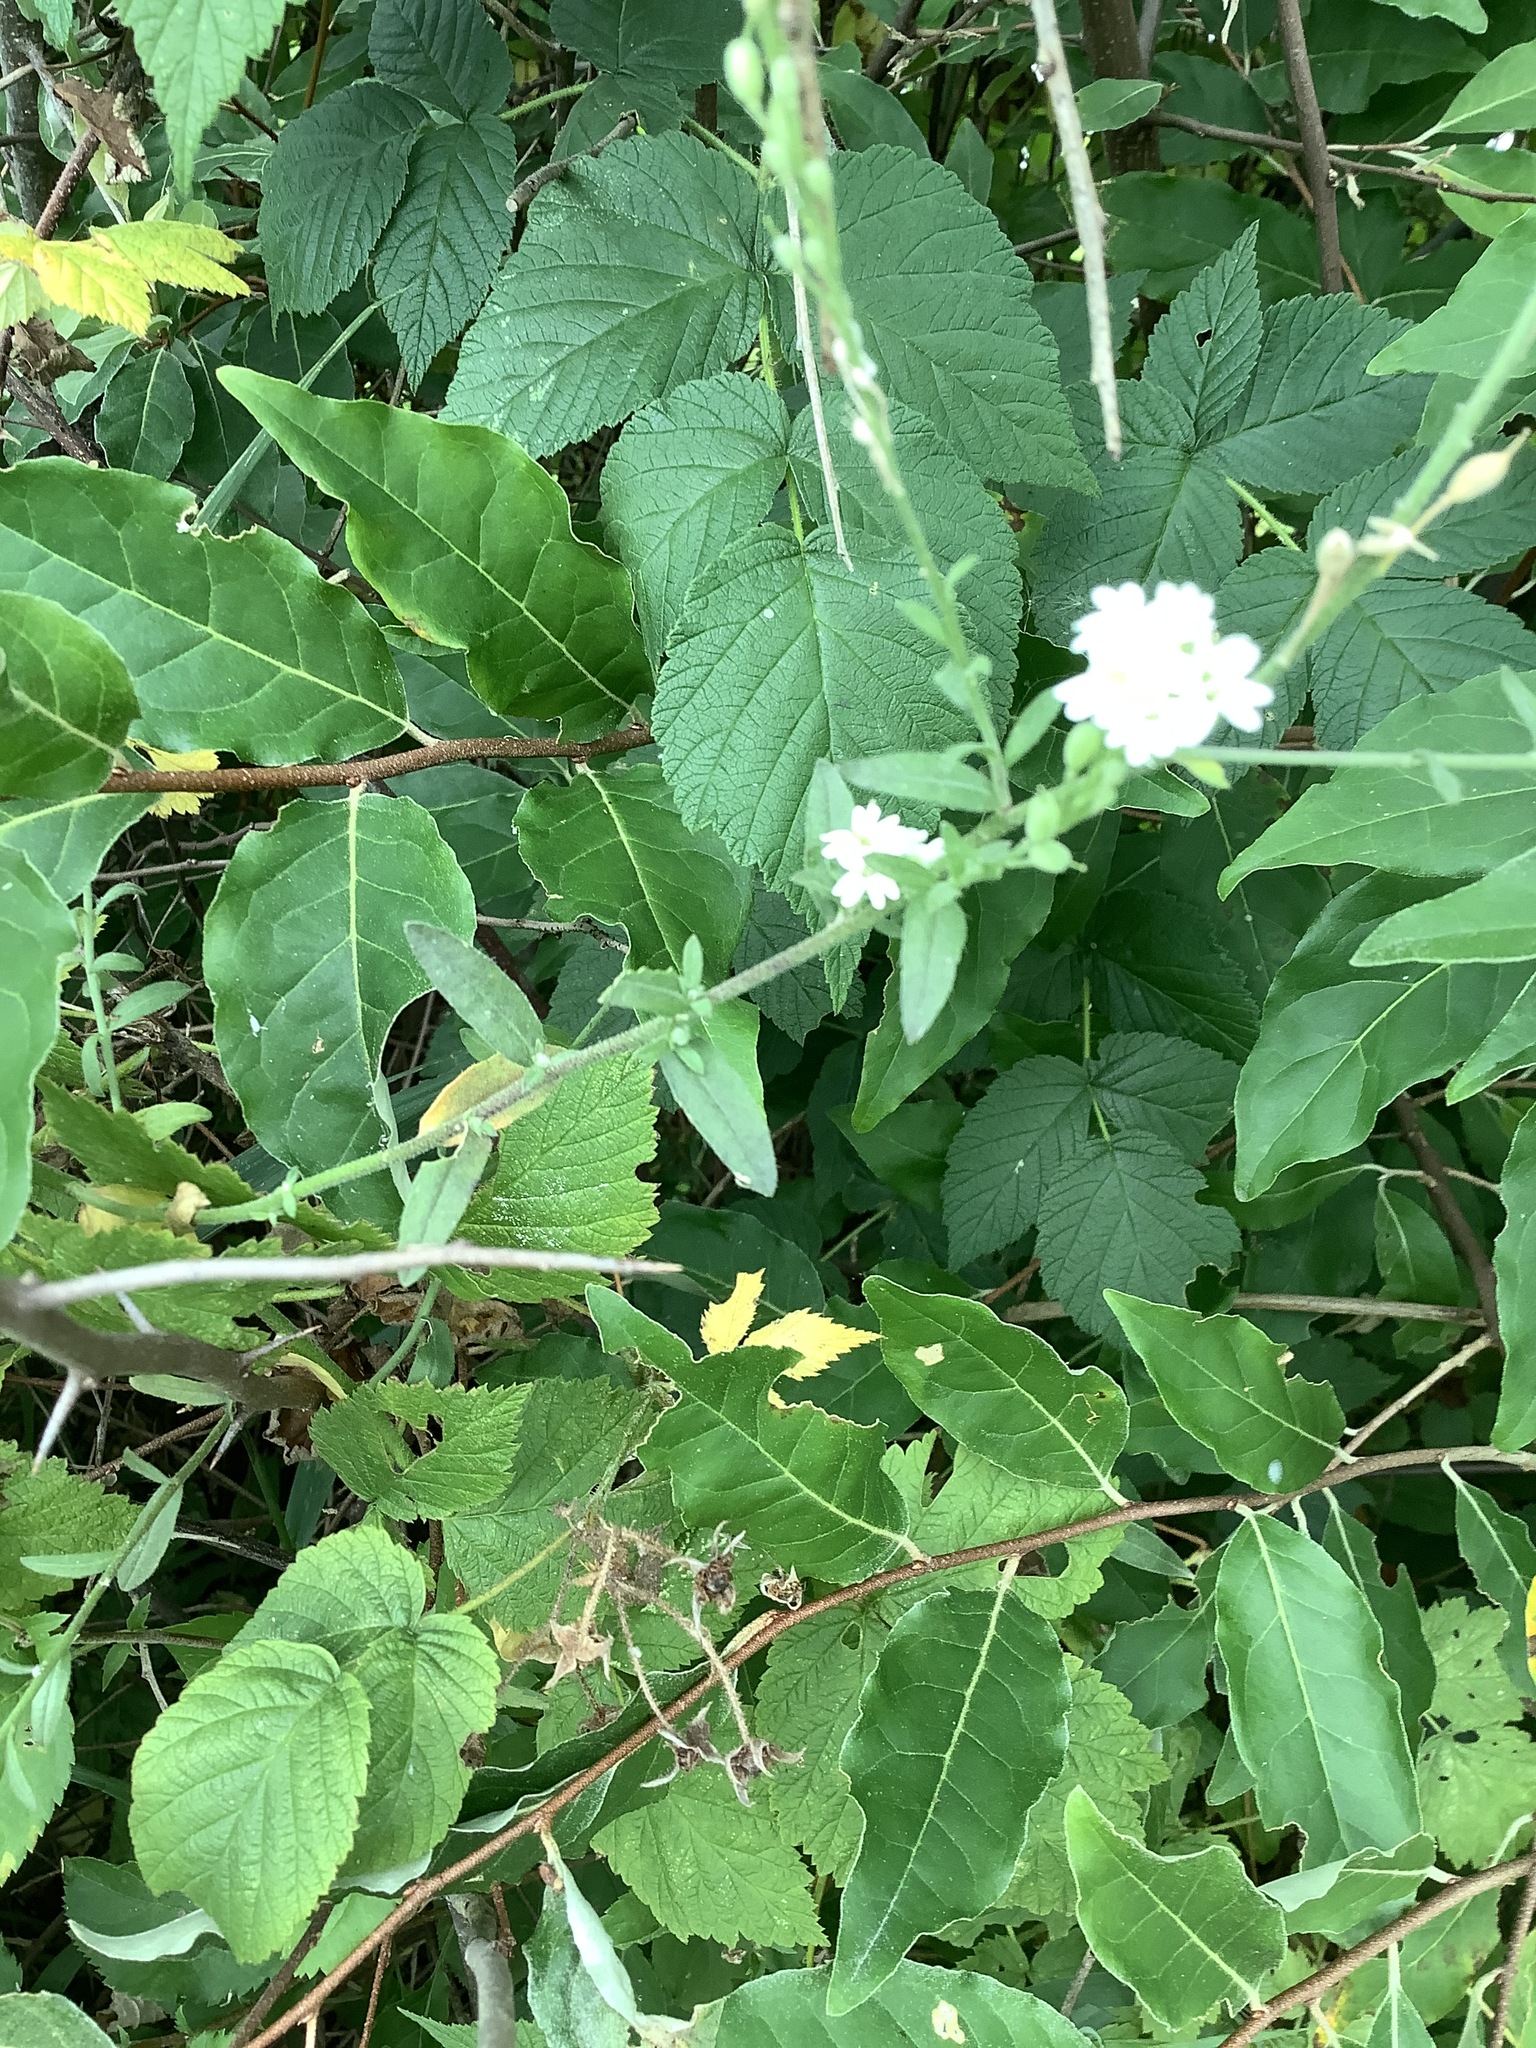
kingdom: Plantae
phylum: Tracheophyta
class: Magnoliopsida
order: Brassicales
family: Brassicaceae
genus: Berteroa
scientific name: Berteroa incana
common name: Hoary alison
